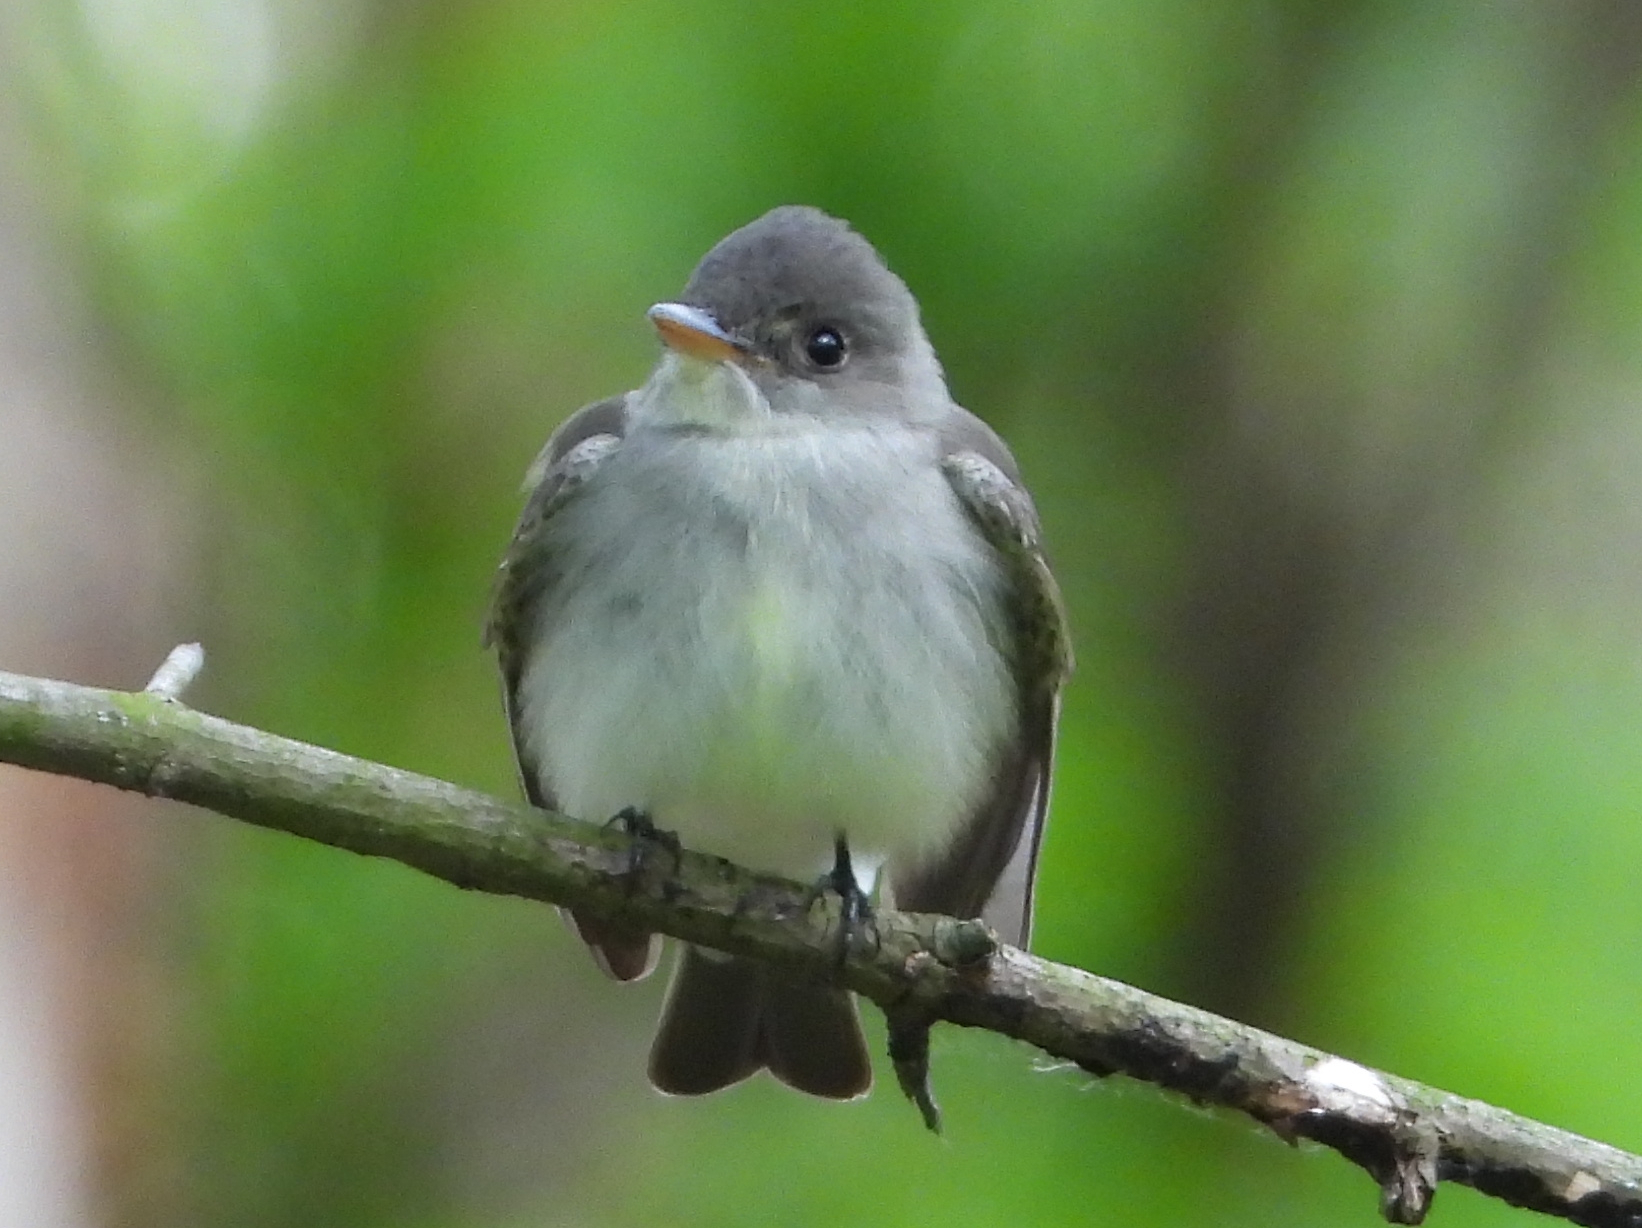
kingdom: Animalia
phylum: Chordata
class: Aves
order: Passeriformes
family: Tyrannidae
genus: Contopus
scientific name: Contopus virens
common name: Eastern wood-pewee
